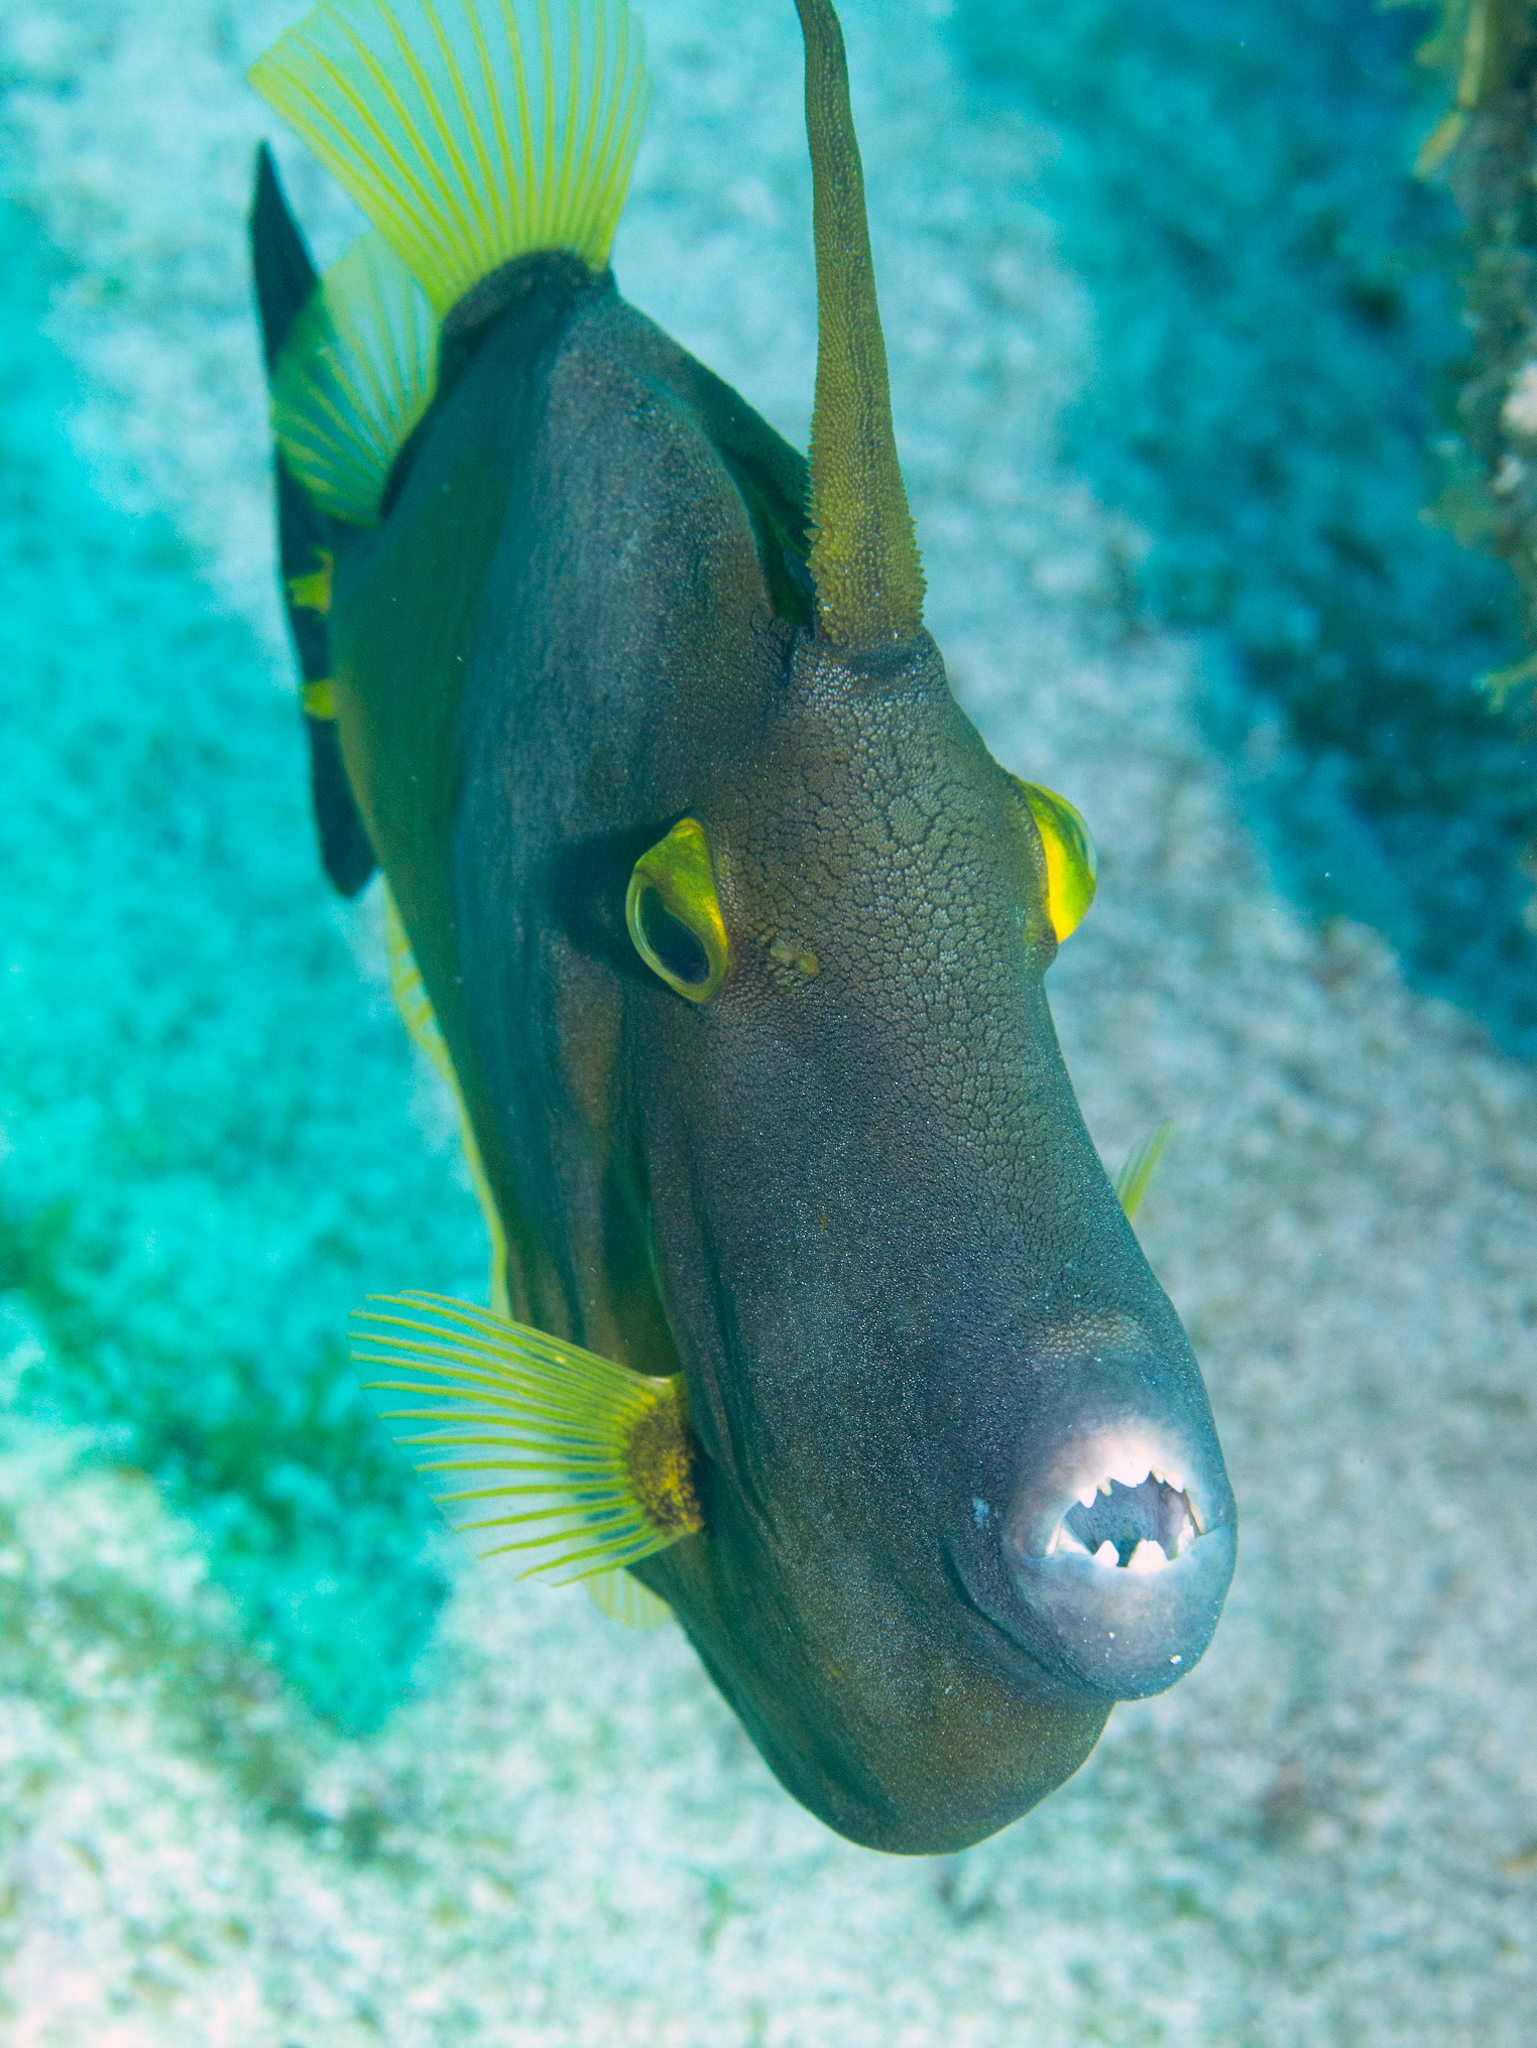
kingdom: Animalia
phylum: Chordata
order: Tetraodontiformes
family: Monacanthidae
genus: Cantherhines
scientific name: Cantherhines macrocerus
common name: Whitespotted filefish
